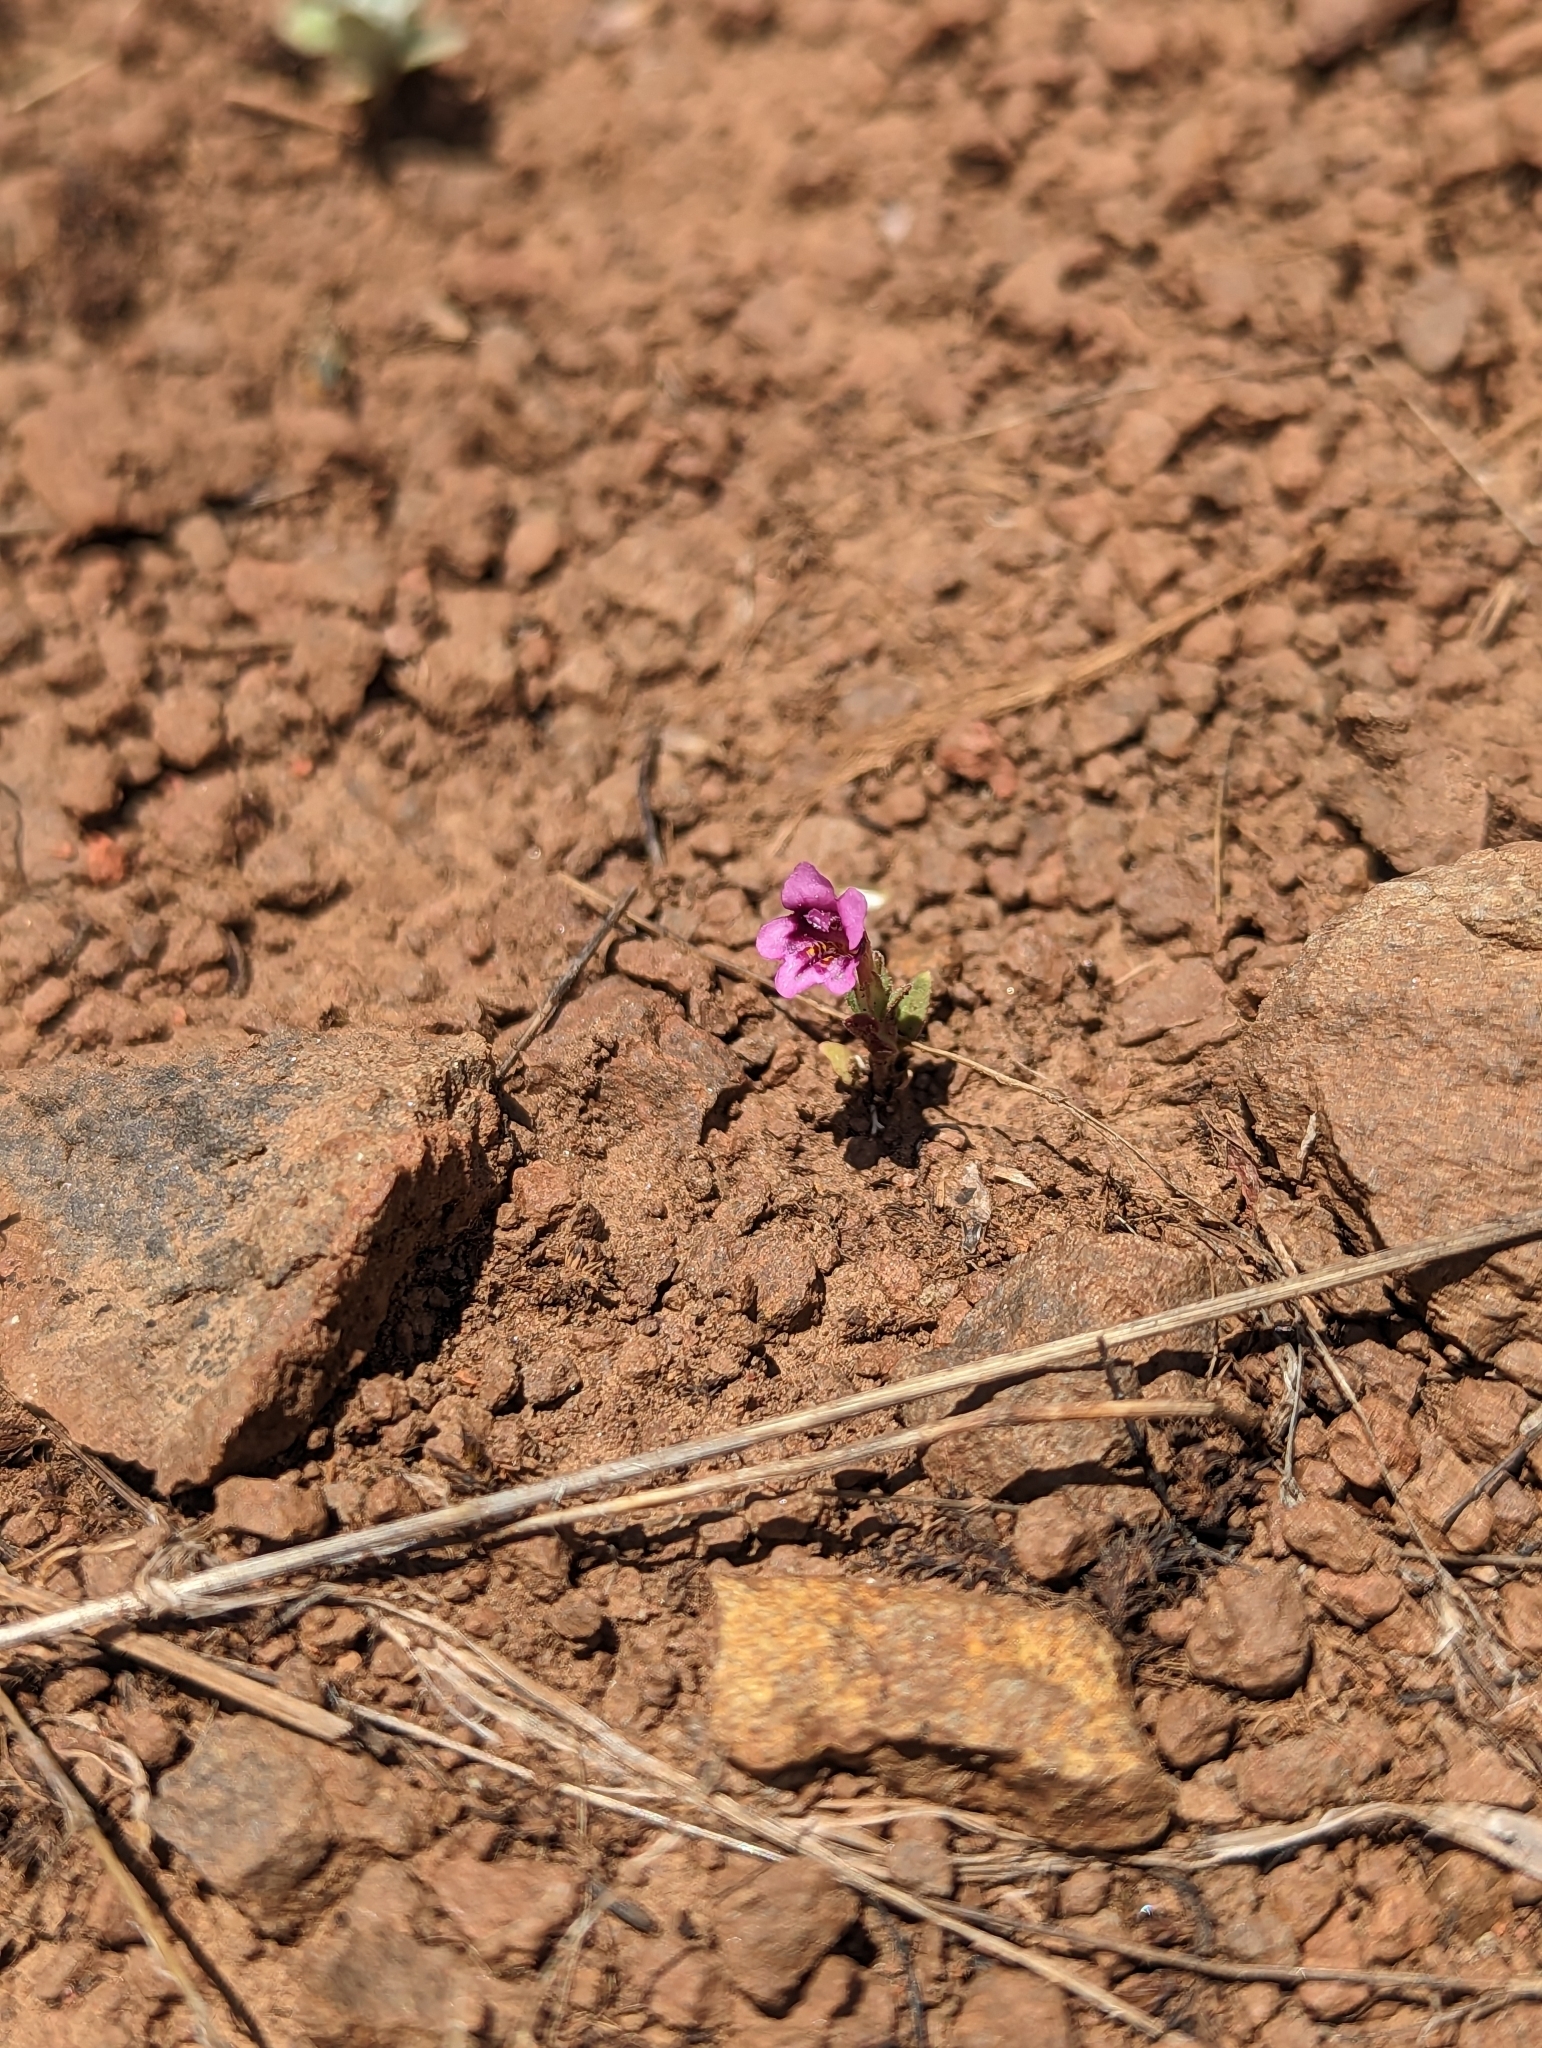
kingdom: Plantae
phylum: Tracheophyta
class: Magnoliopsida
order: Lamiales
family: Phrymaceae
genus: Diplacus
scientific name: Diplacus nanus
